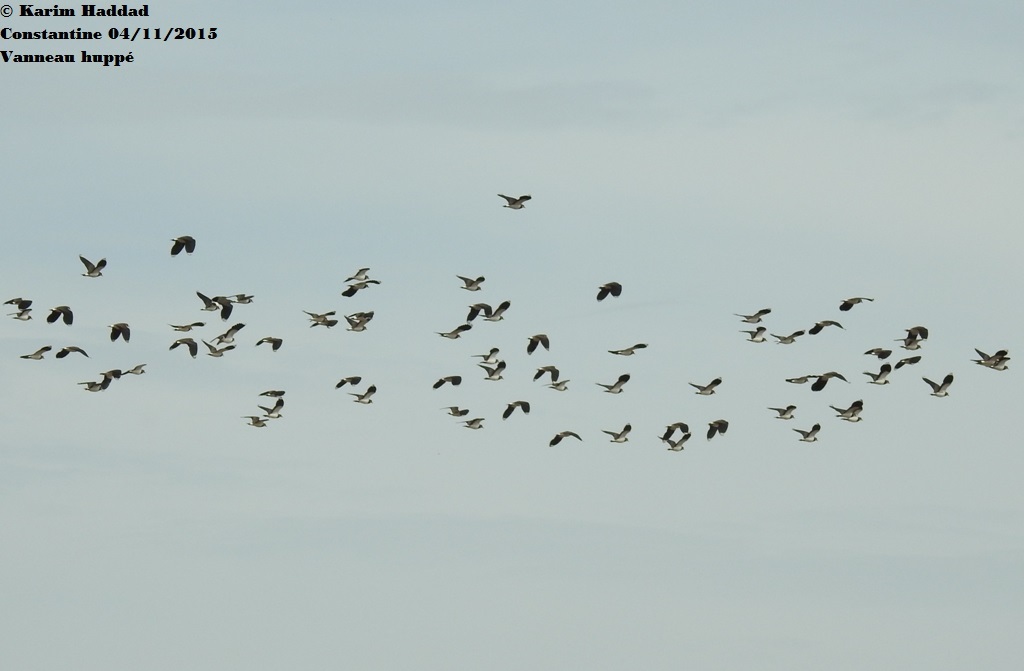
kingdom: Animalia
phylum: Chordata
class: Aves
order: Charadriiformes
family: Charadriidae
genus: Vanellus
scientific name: Vanellus vanellus
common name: Northern lapwing
